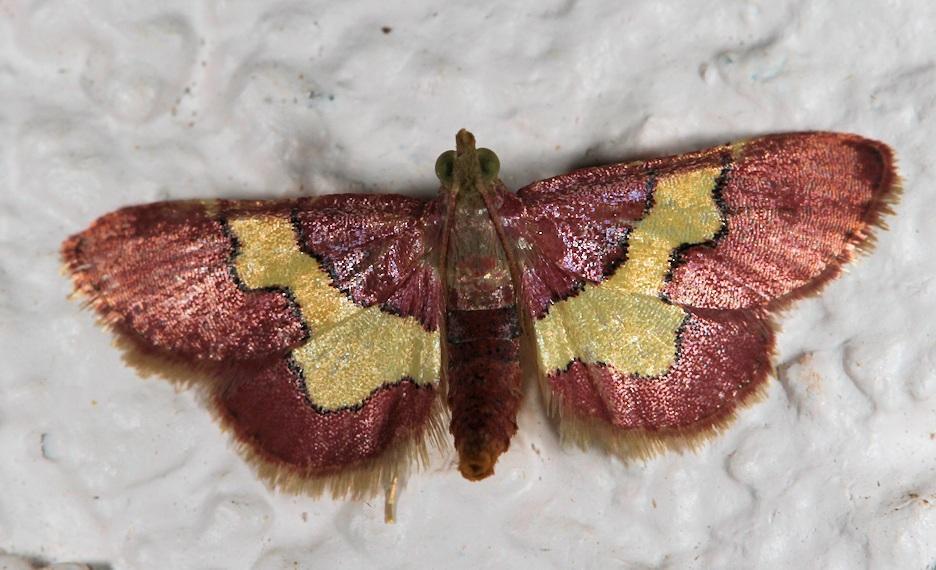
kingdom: Animalia
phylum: Arthropoda
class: Insecta
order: Lepidoptera
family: Pyralidae
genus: Bostra
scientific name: Bostra xanthorhodalis
